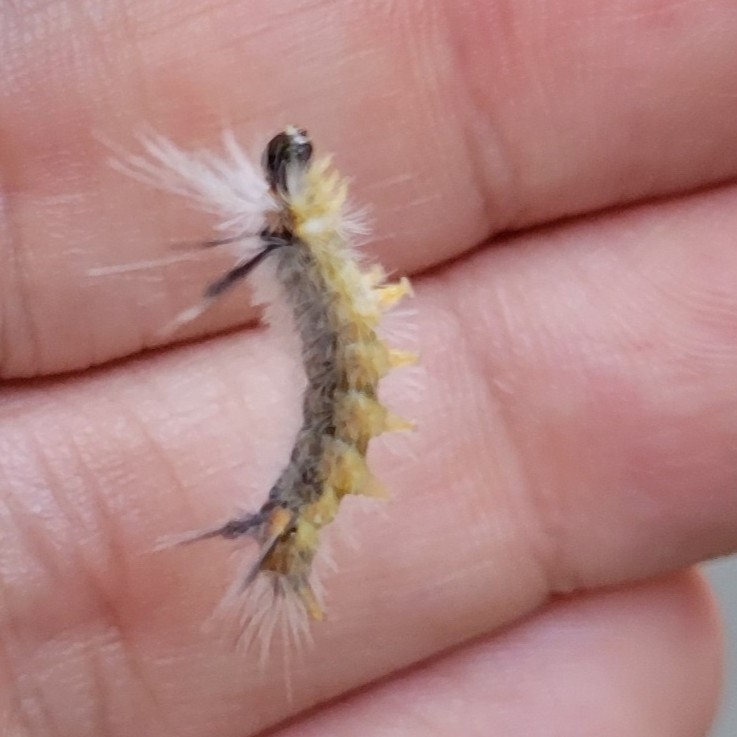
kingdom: Animalia
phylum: Arthropoda
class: Insecta
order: Lepidoptera
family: Erebidae
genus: Halysidota
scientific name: Halysidota tessellaris
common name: Banded tussock moth
